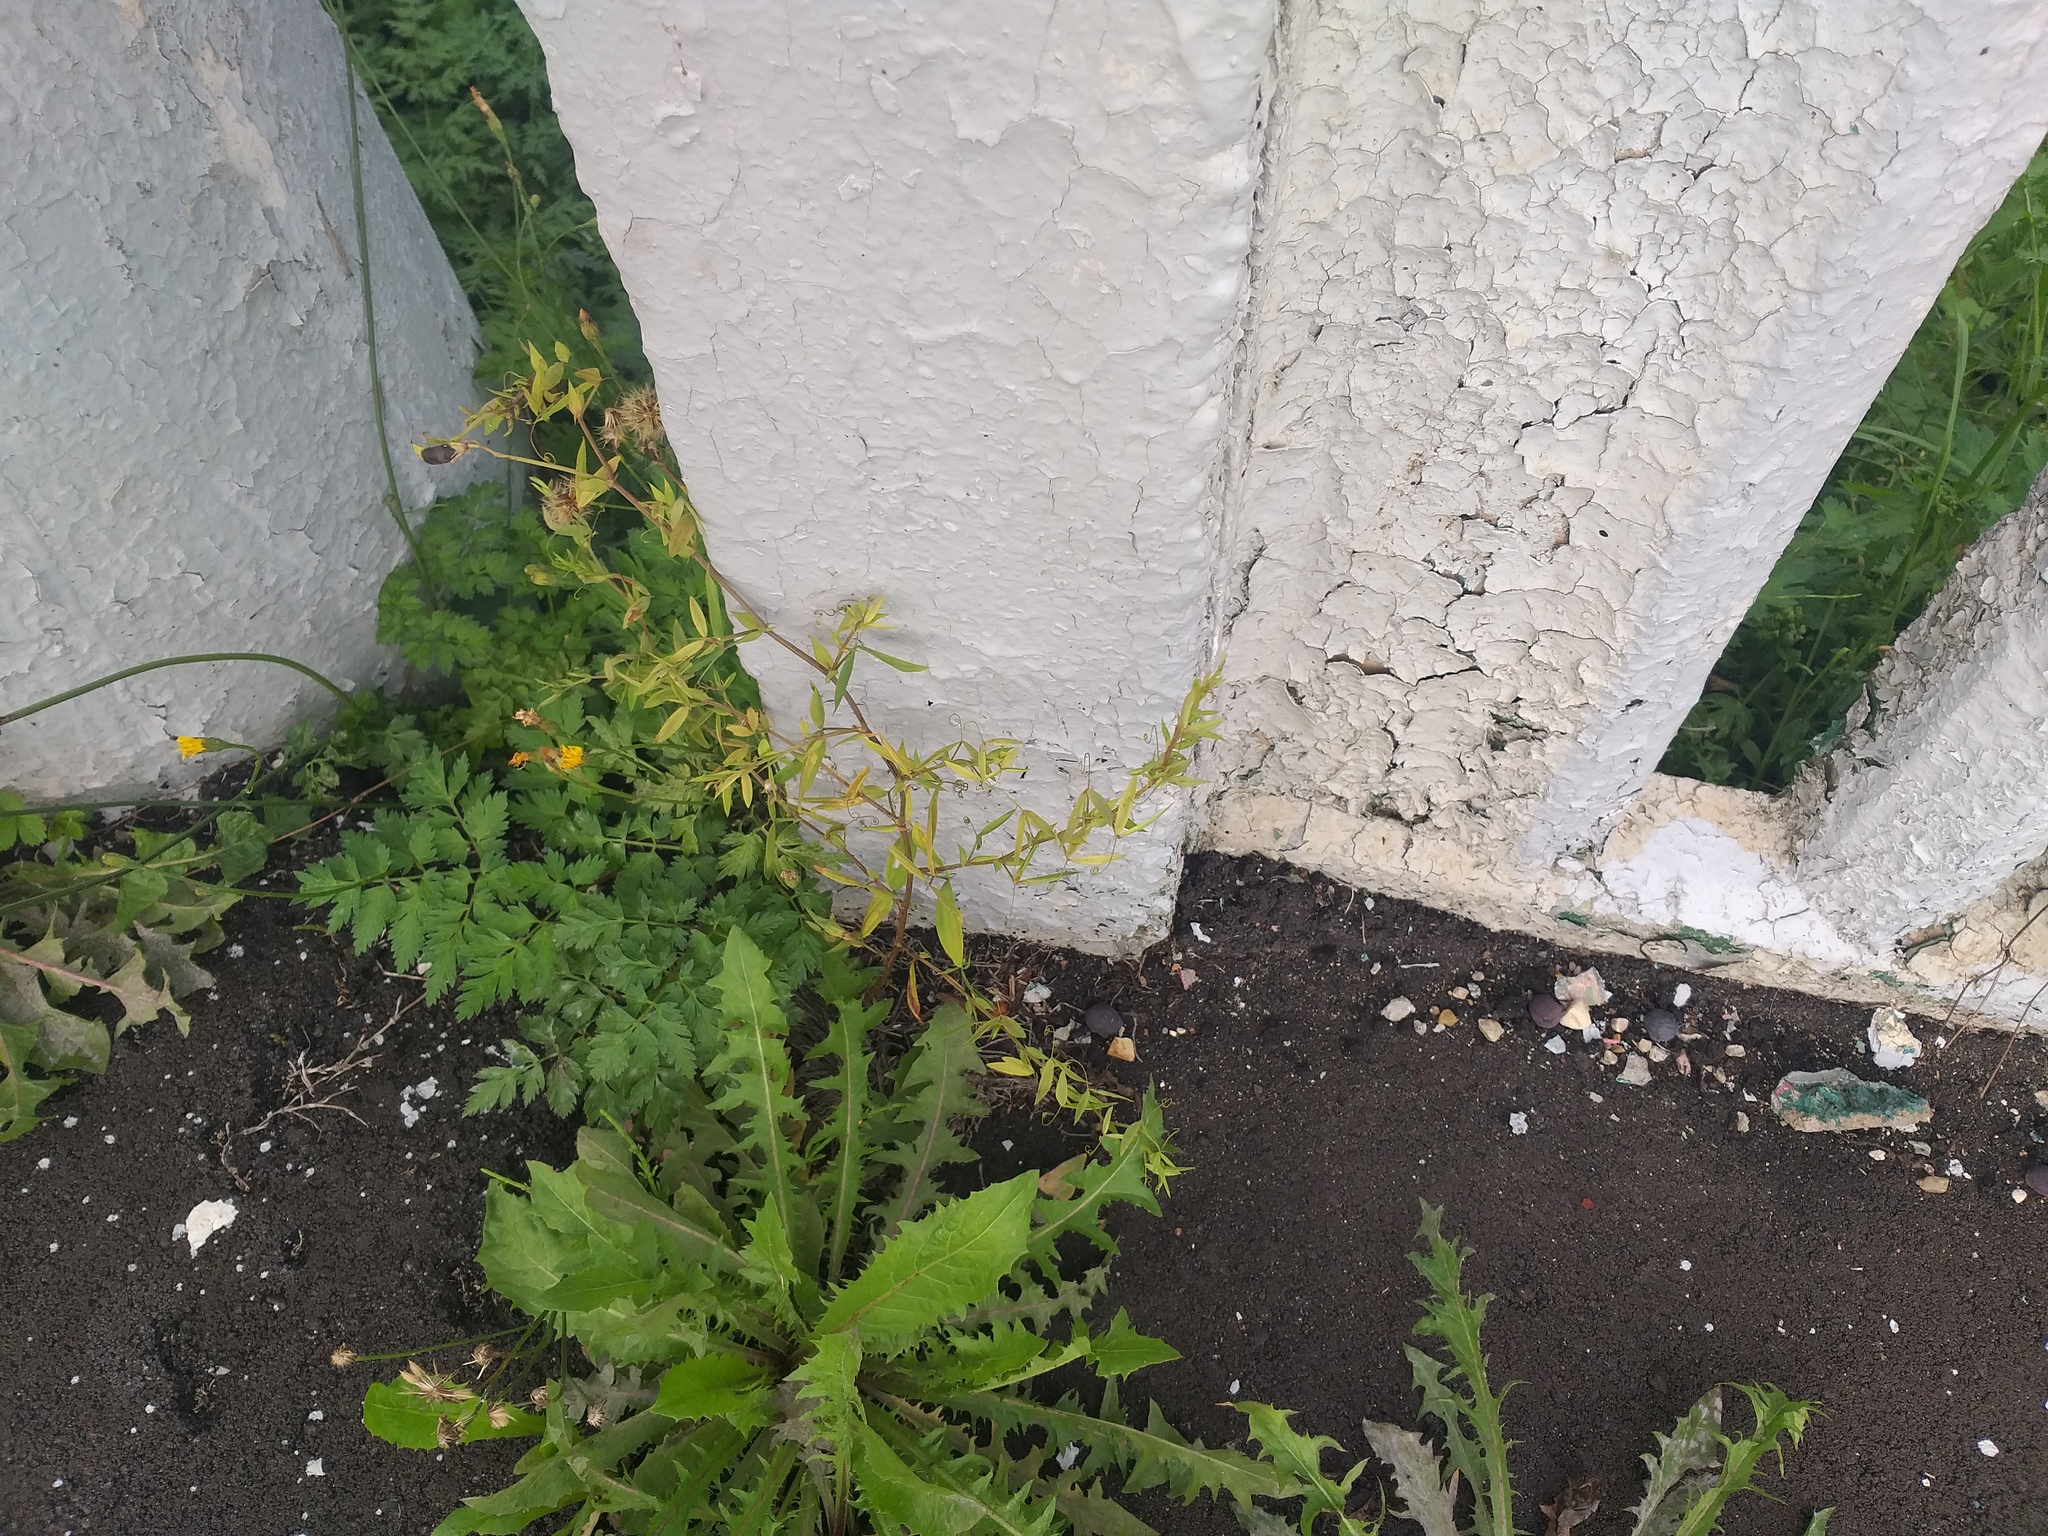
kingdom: Plantae
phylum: Tracheophyta
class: Magnoliopsida
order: Fabales
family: Fabaceae
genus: Lathyrus
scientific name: Lathyrus pratensis
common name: Meadow vetchling
